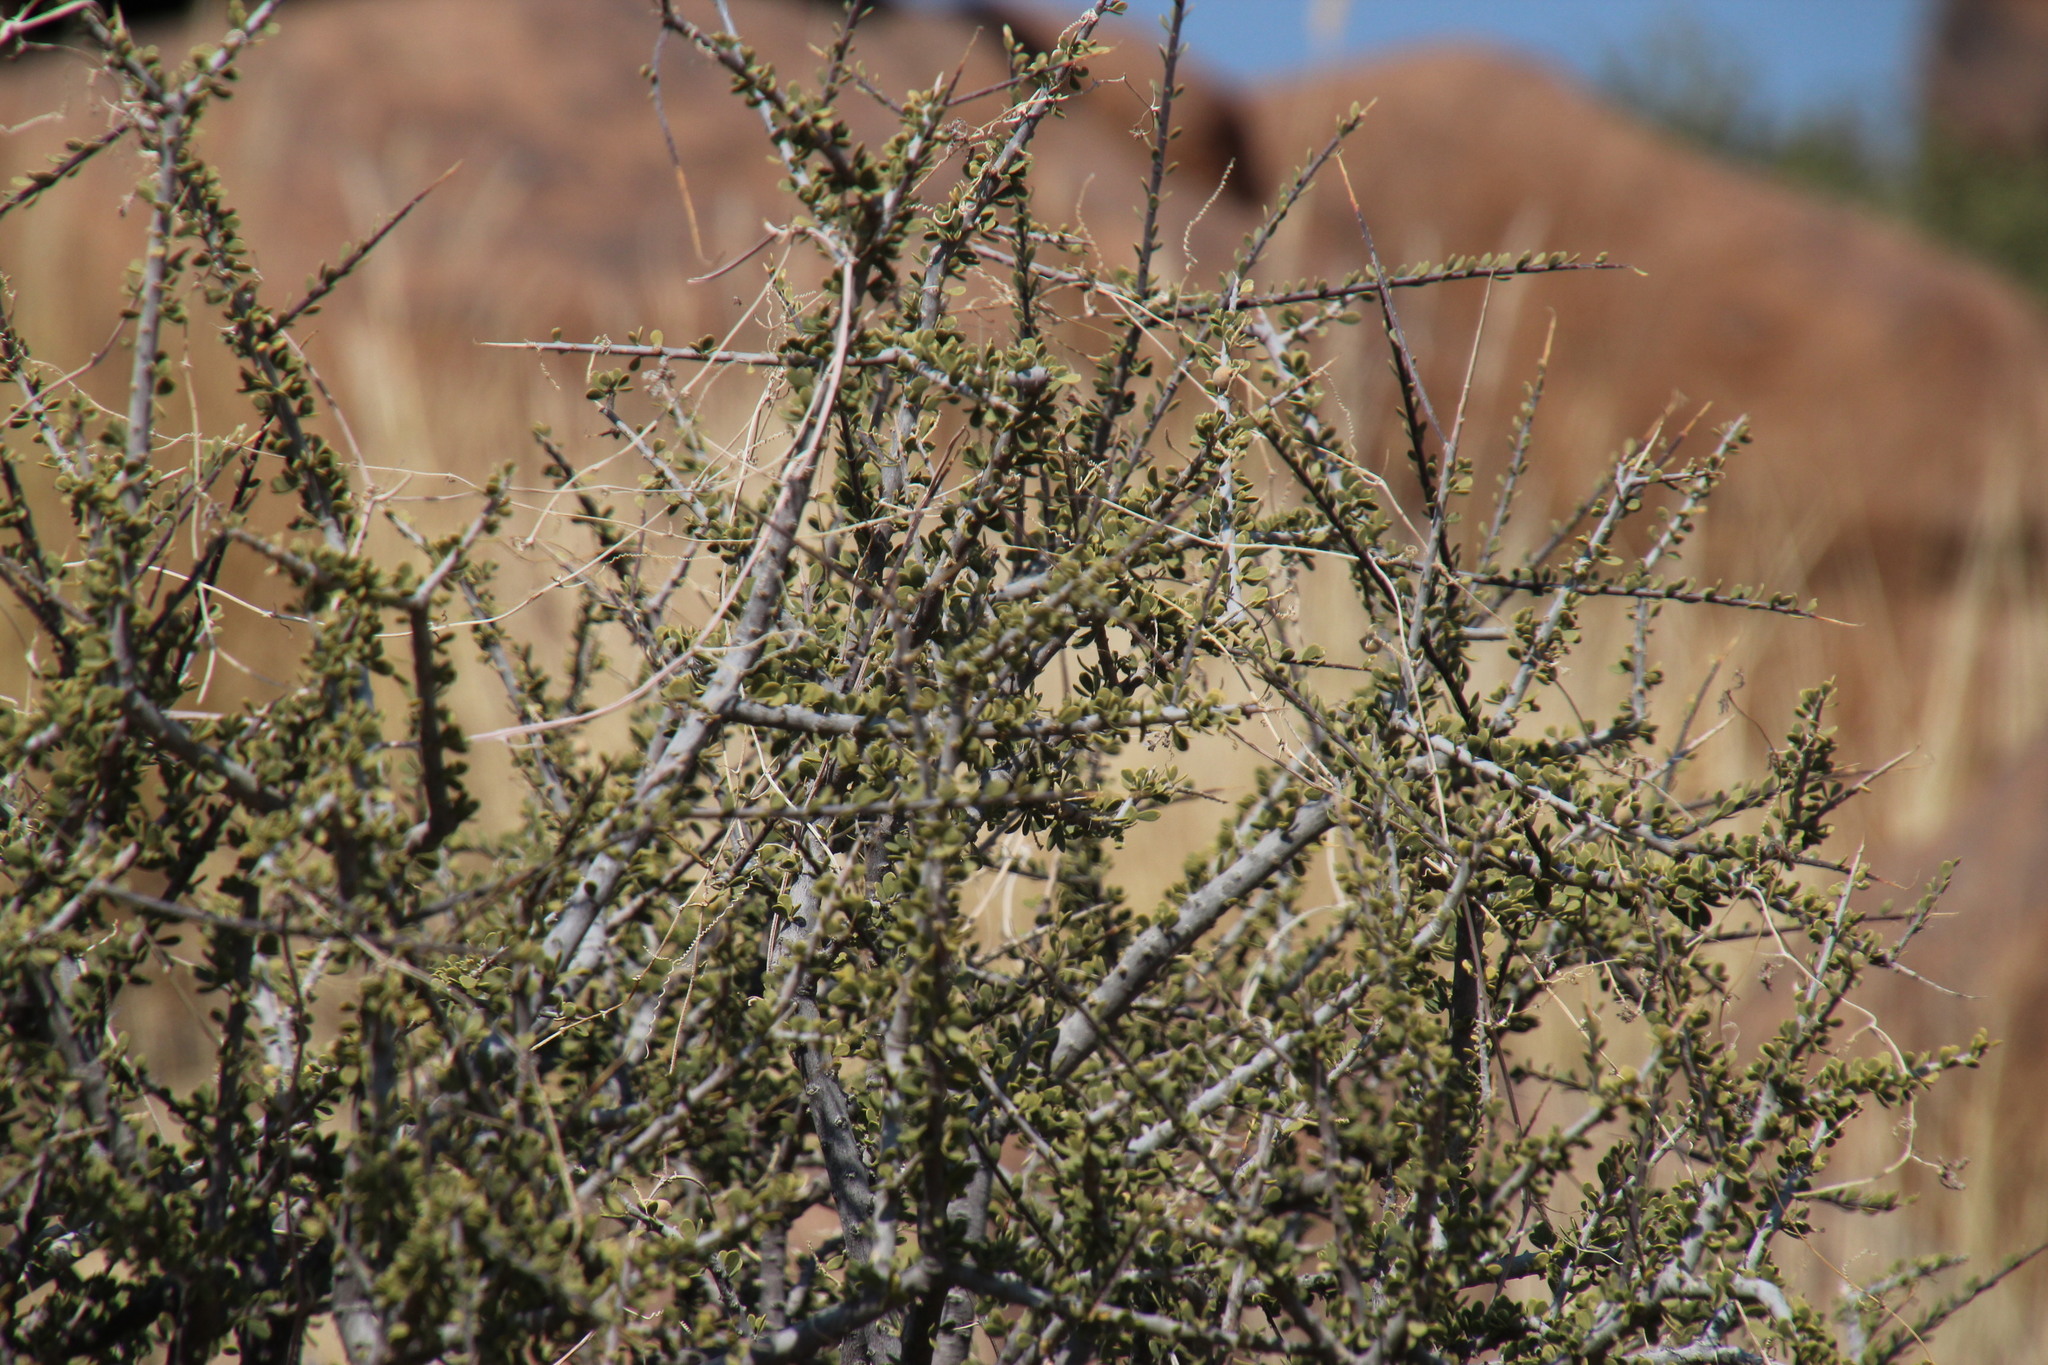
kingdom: Plantae
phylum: Tracheophyta
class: Magnoliopsida
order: Brassicales
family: Capparaceae
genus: Boscia
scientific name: Boscia foetida
